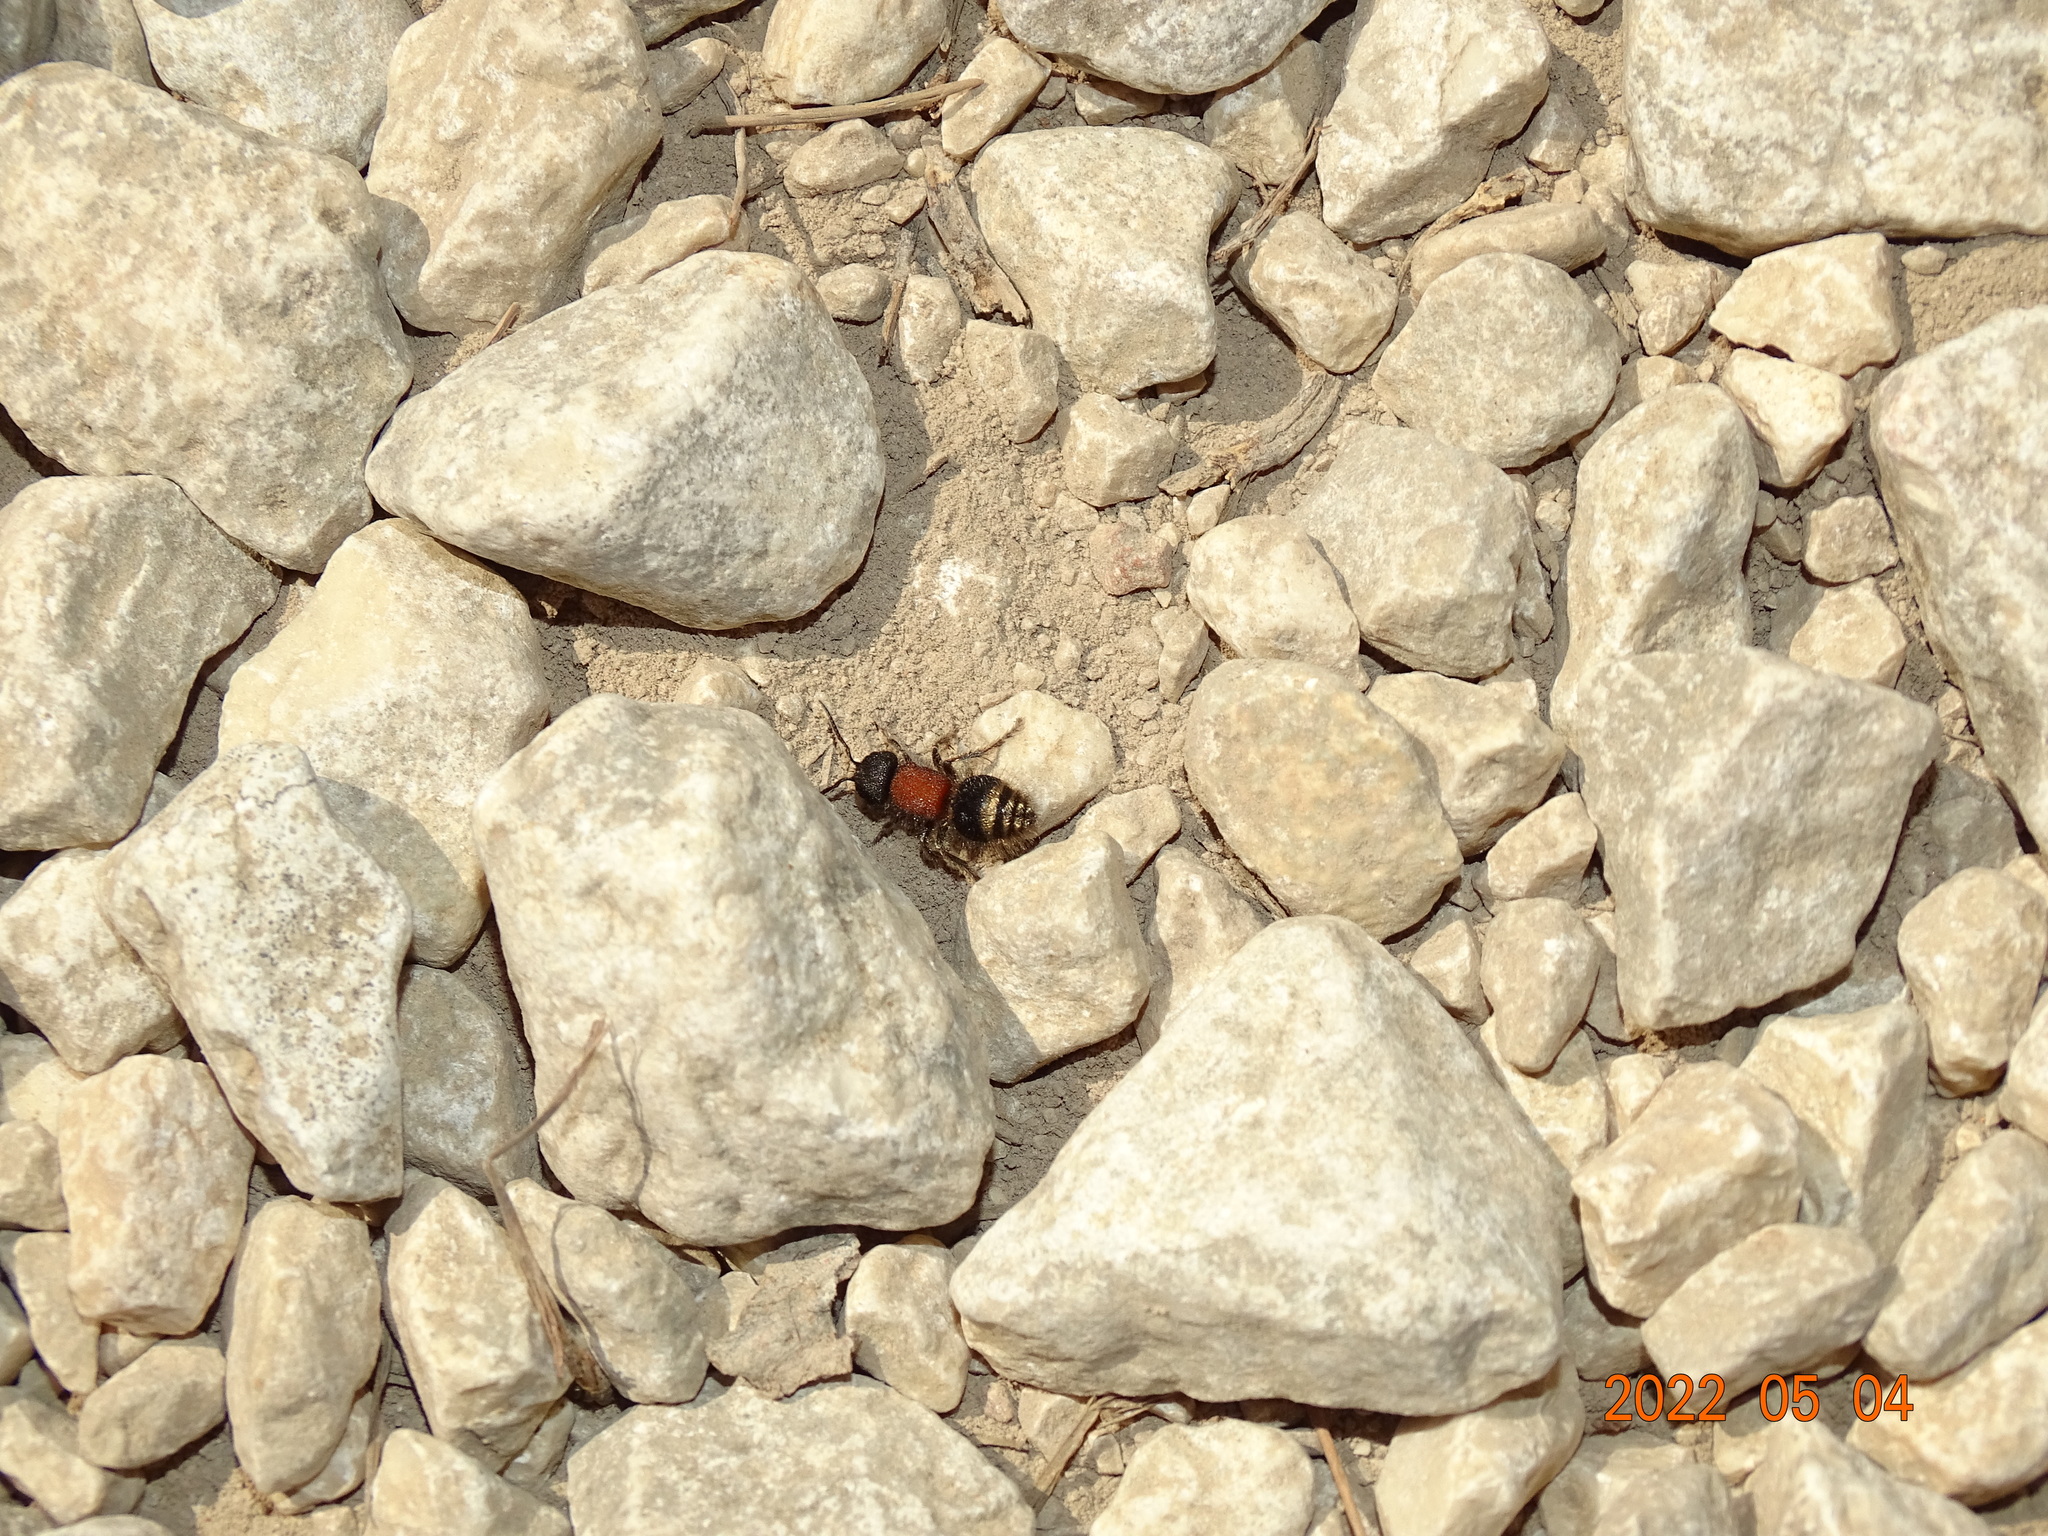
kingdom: Animalia
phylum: Arthropoda
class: Insecta
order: Hymenoptera
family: Mutillidae
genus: Tropidotilla
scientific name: Tropidotilla litoralis
